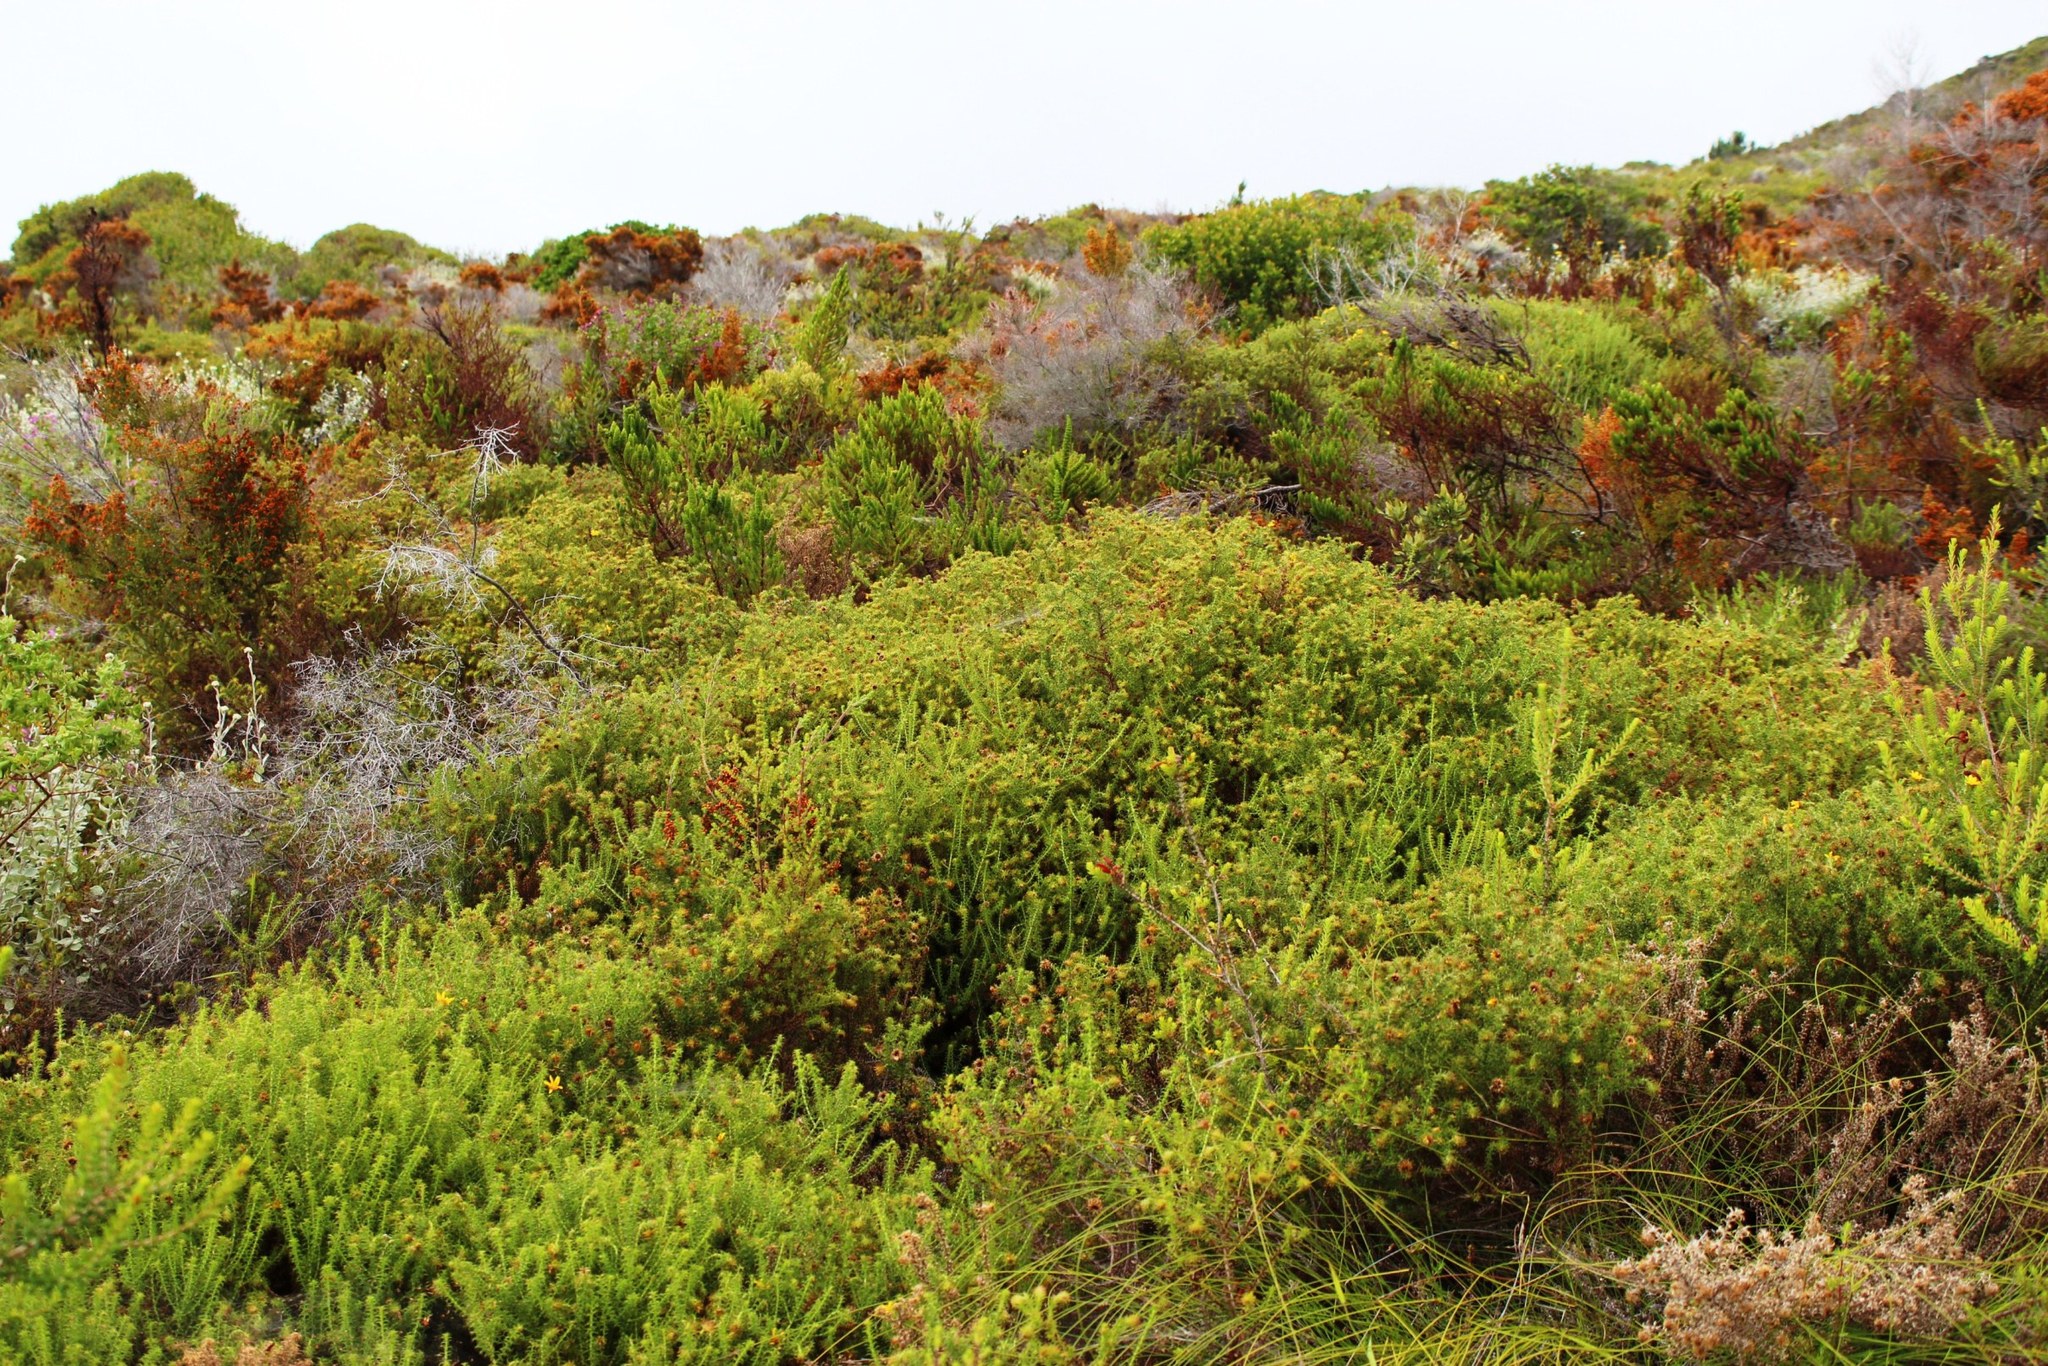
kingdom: Plantae
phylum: Tracheophyta
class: Magnoliopsida
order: Asterales
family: Asteraceae
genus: Cullumia
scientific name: Cullumia decurrens
